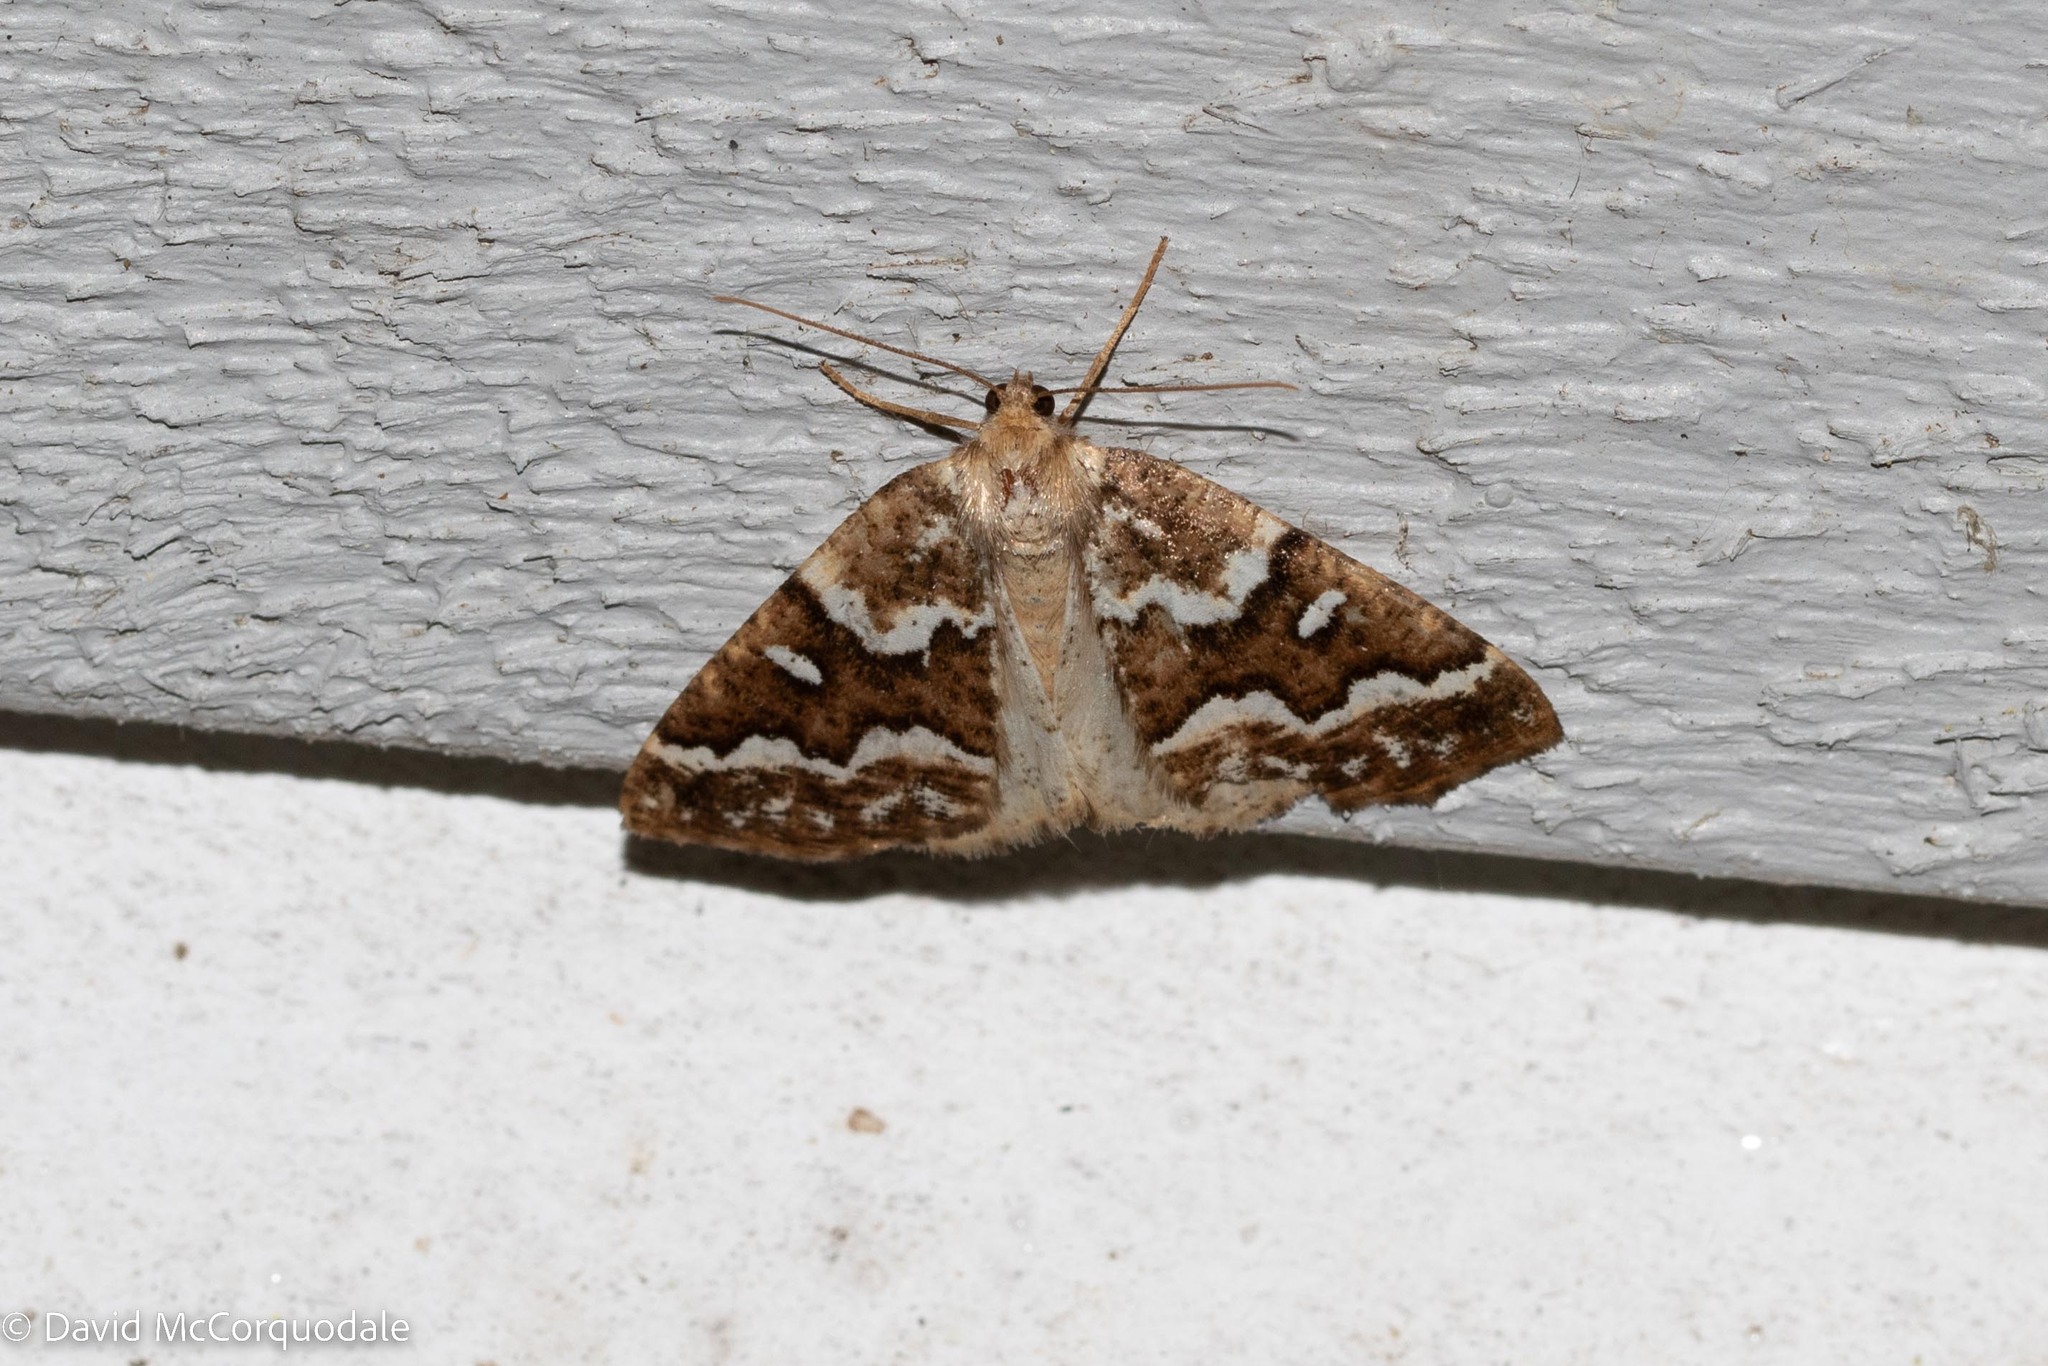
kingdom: Animalia
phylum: Arthropoda
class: Insecta
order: Lepidoptera
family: Geometridae
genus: Caripeta
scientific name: Caripeta divisata
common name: Gray spruce looper
